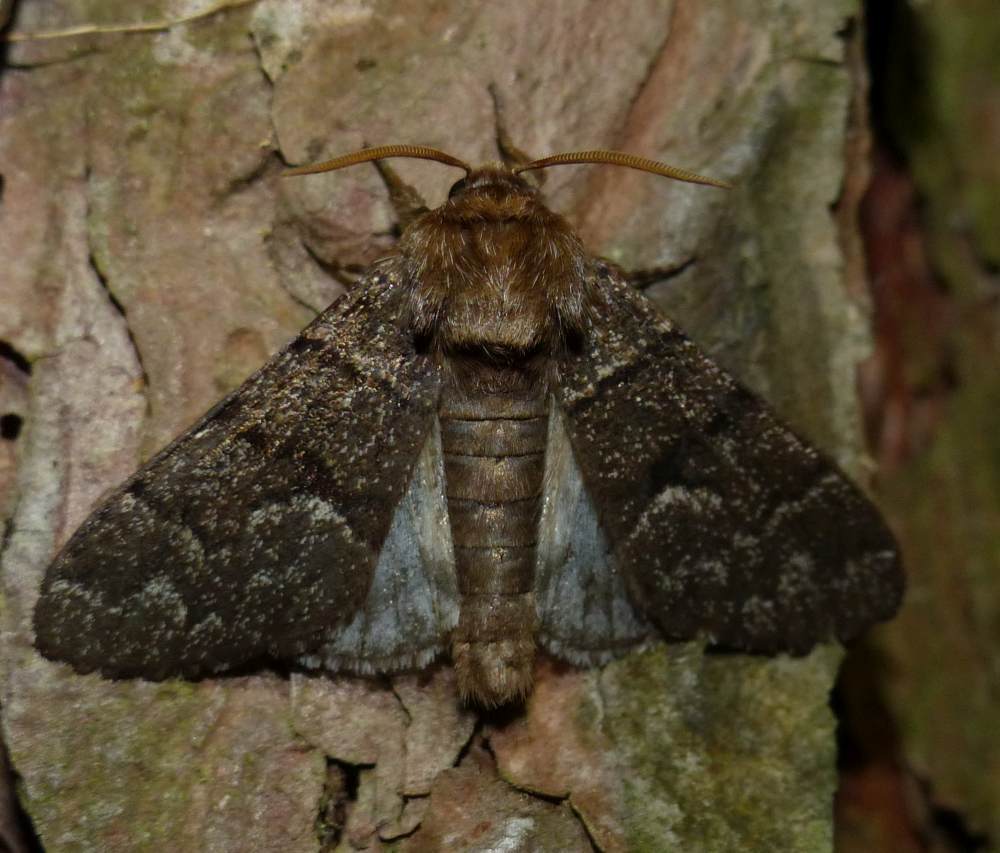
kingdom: Animalia
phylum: Arthropoda
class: Insecta
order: Lepidoptera
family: Noctuidae
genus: Panthea
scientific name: Panthea furcilla
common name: Eastern panthea moth
